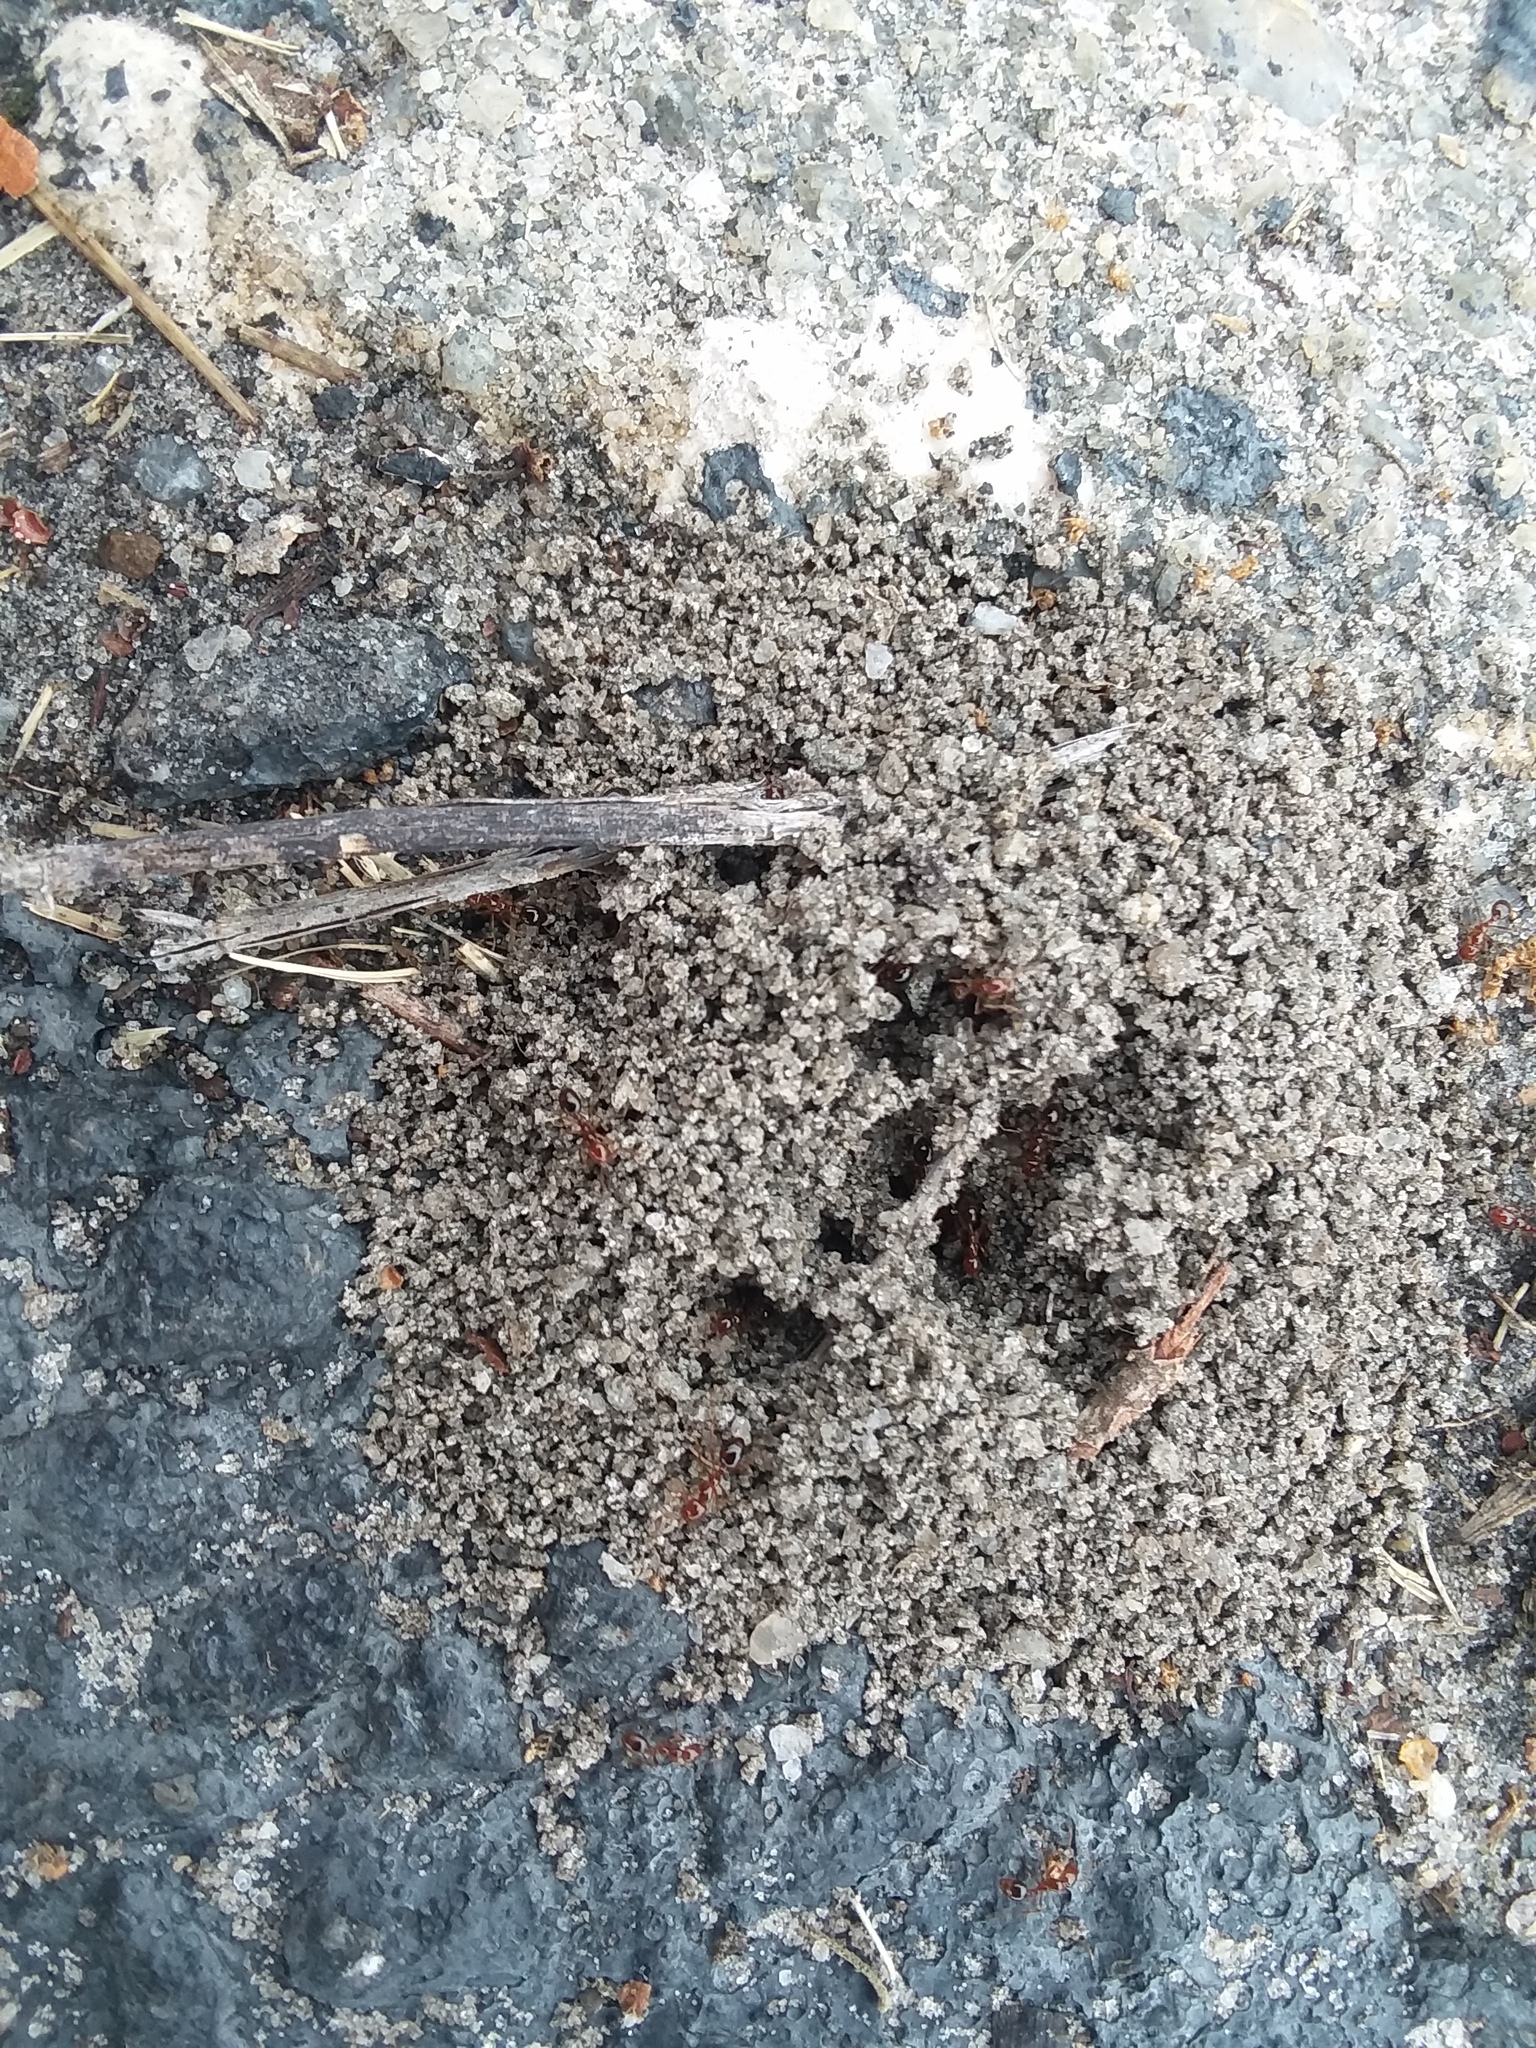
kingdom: Animalia
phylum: Arthropoda
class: Insecta
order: Hymenoptera
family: Formicidae
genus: Solenopsis
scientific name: Solenopsis invicta
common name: Red imported fire ant
